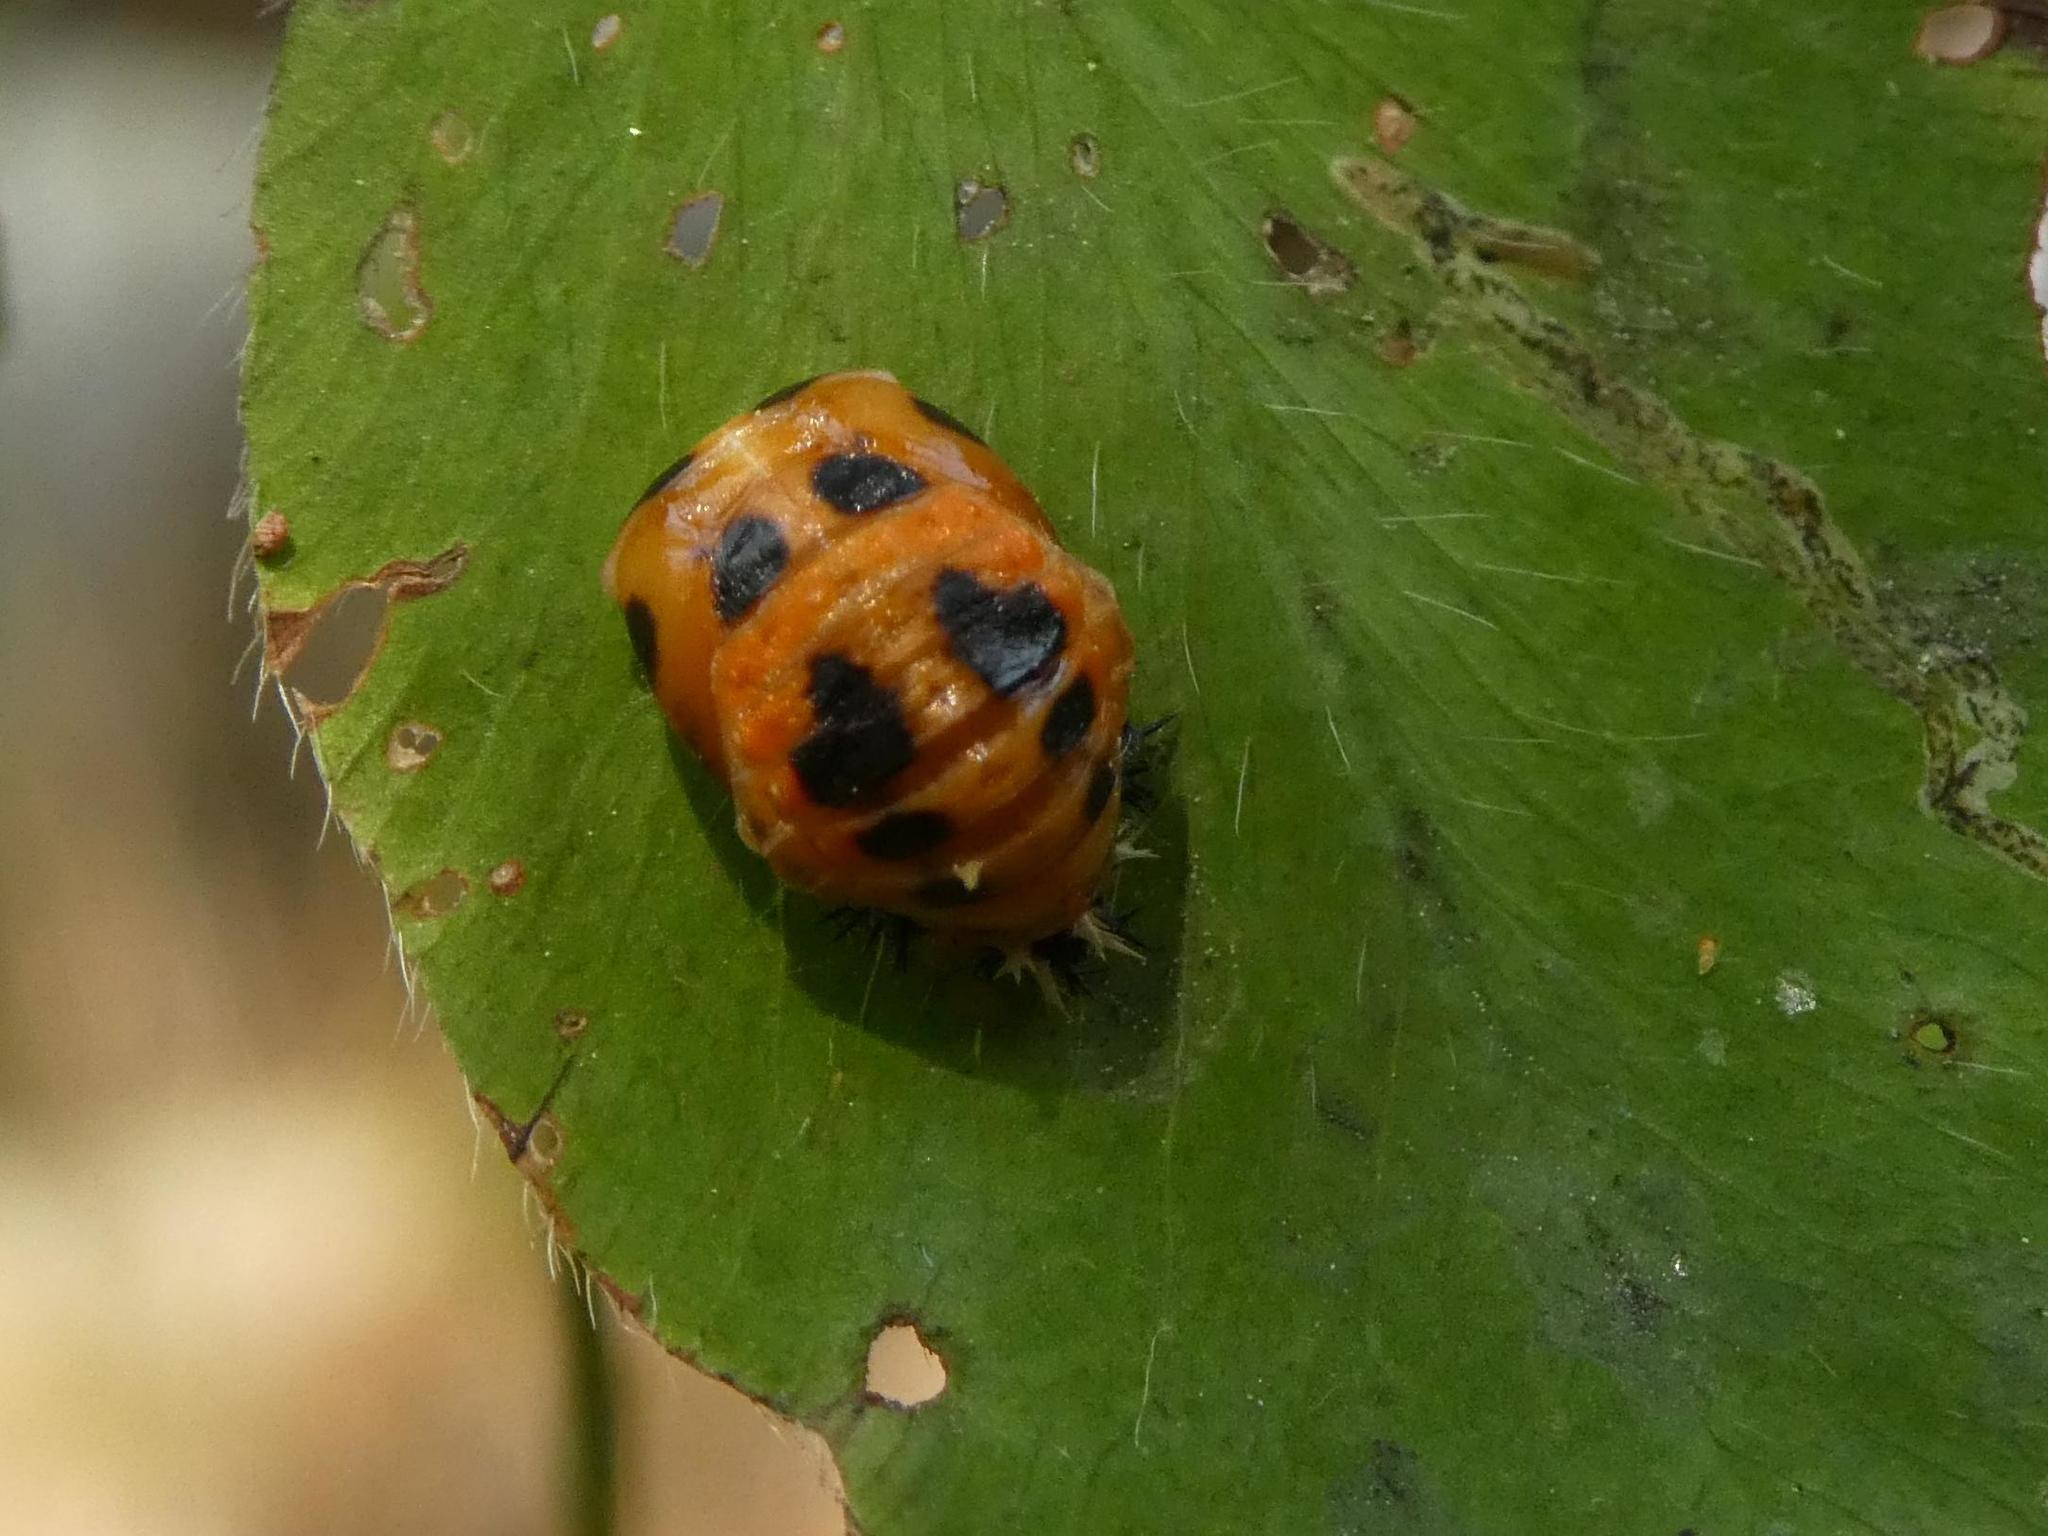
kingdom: Animalia
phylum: Arthropoda
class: Insecta
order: Coleoptera
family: Coccinellidae
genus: Harmonia
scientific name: Harmonia axyridis
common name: Harlequin ladybird
